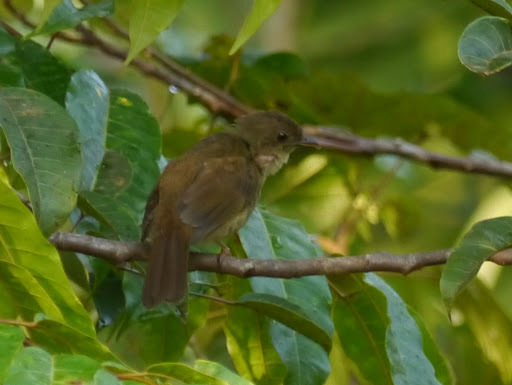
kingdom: Animalia
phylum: Chordata
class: Aves
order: Passeriformes
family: Pycnonotidae
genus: Eurillas
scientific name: Eurillas virens
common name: Little greenbul
